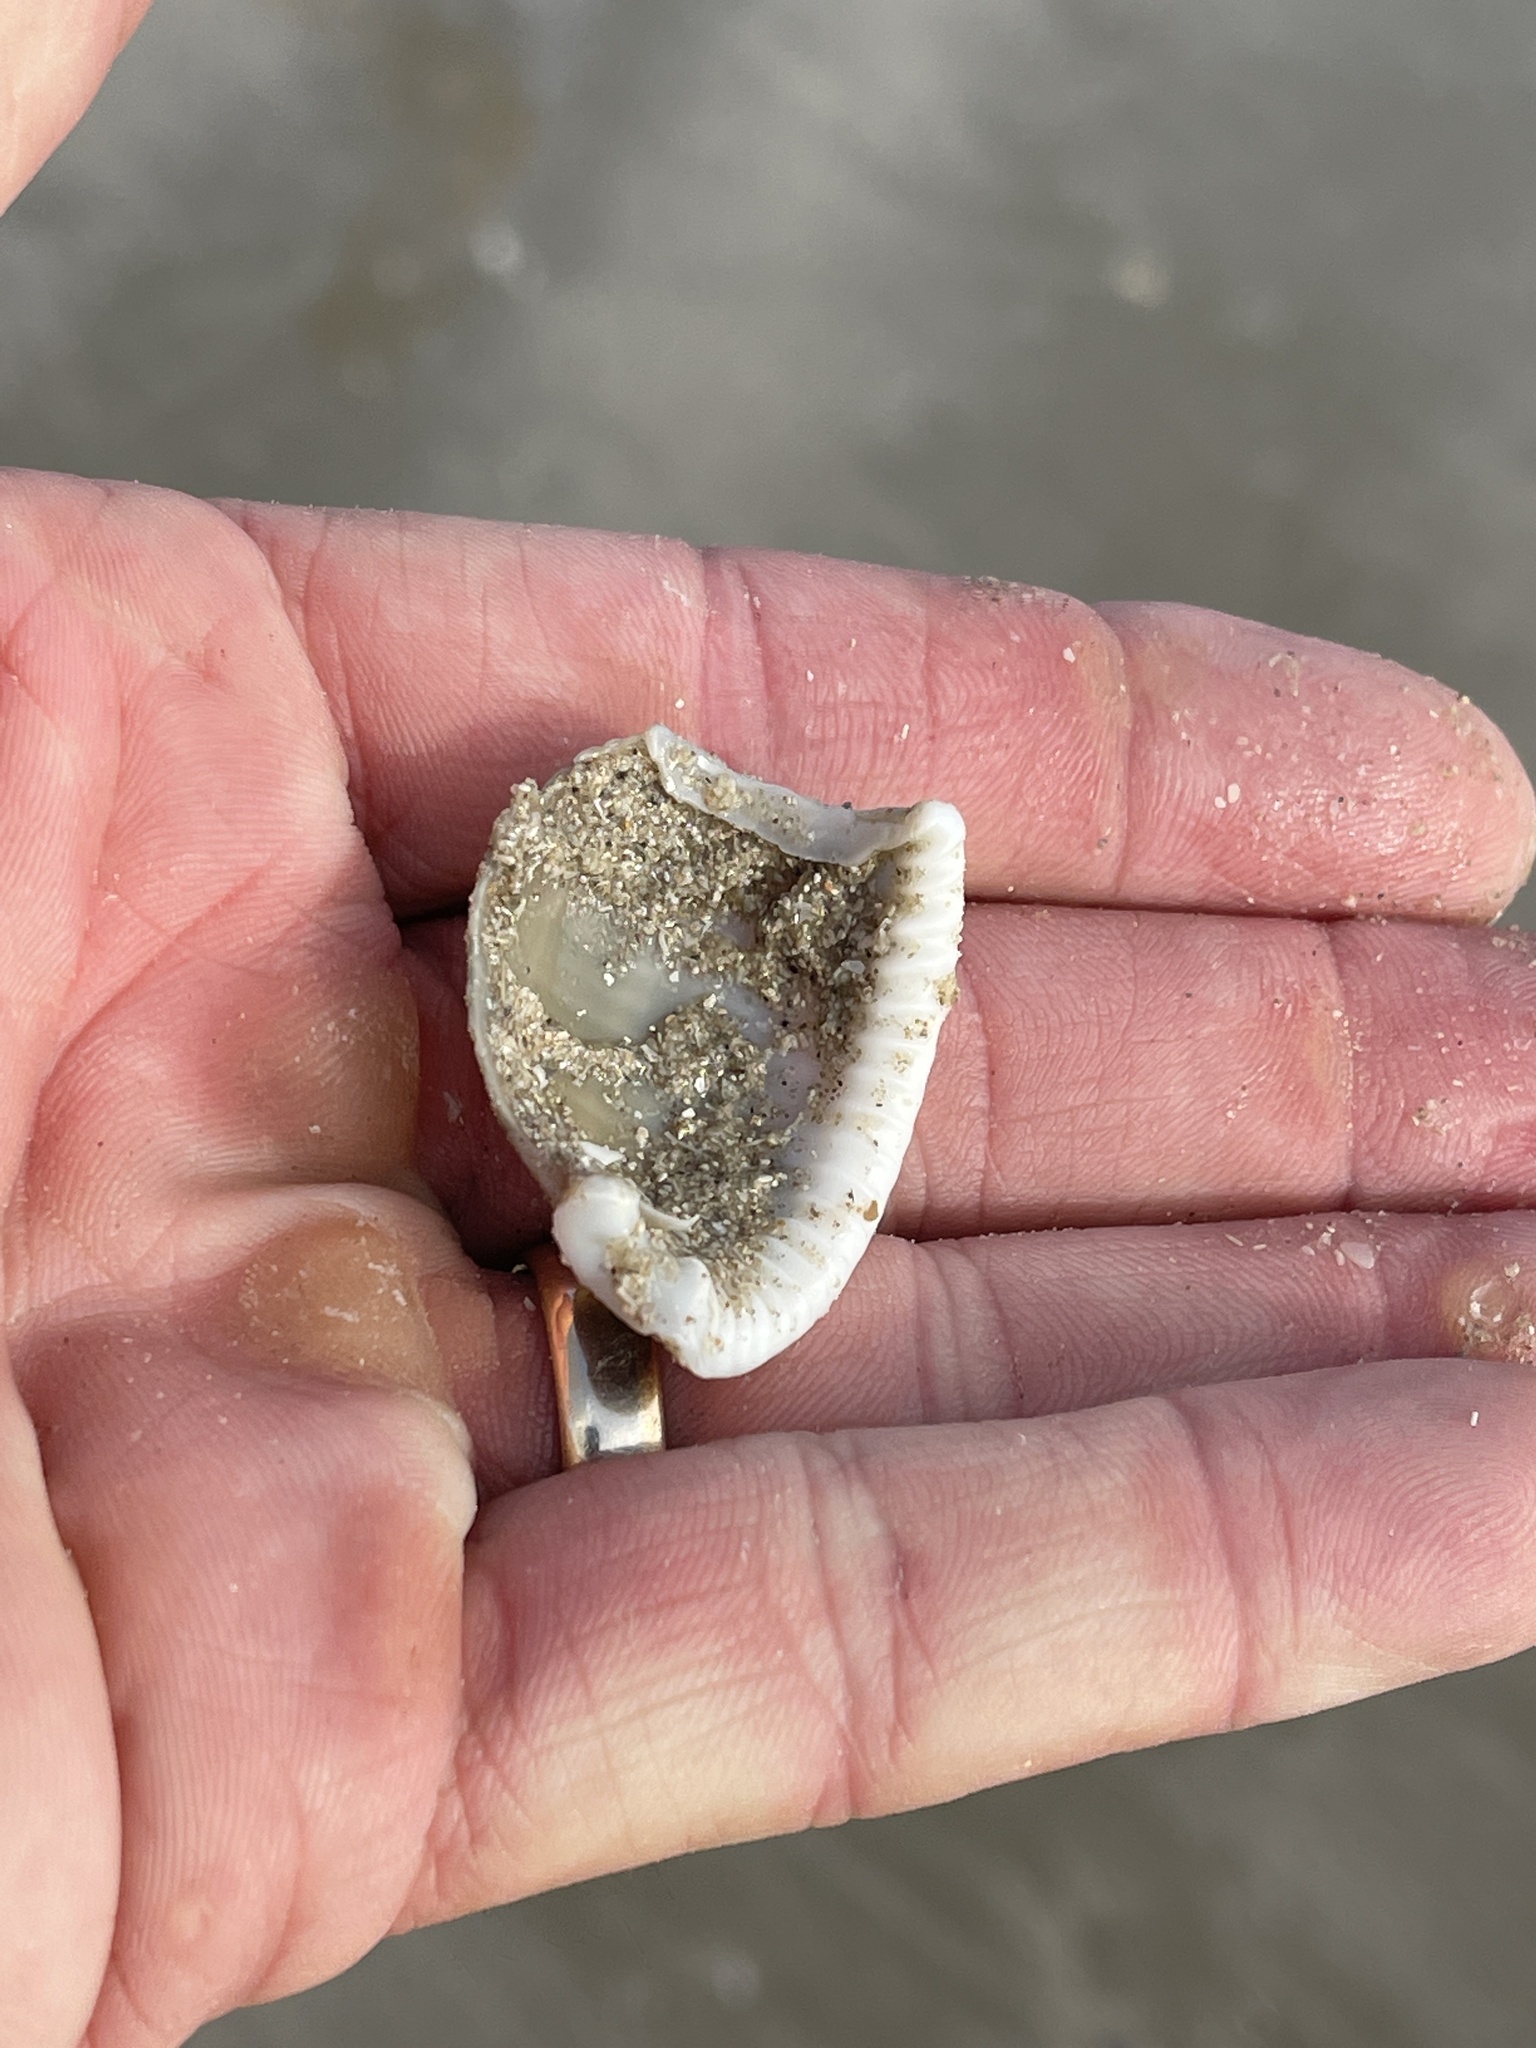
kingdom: Animalia
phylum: Mollusca
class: Gastropoda
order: Littorinimorpha
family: Cassidae
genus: Semicassis
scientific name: Semicassis granulata
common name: Scotch bonnet
